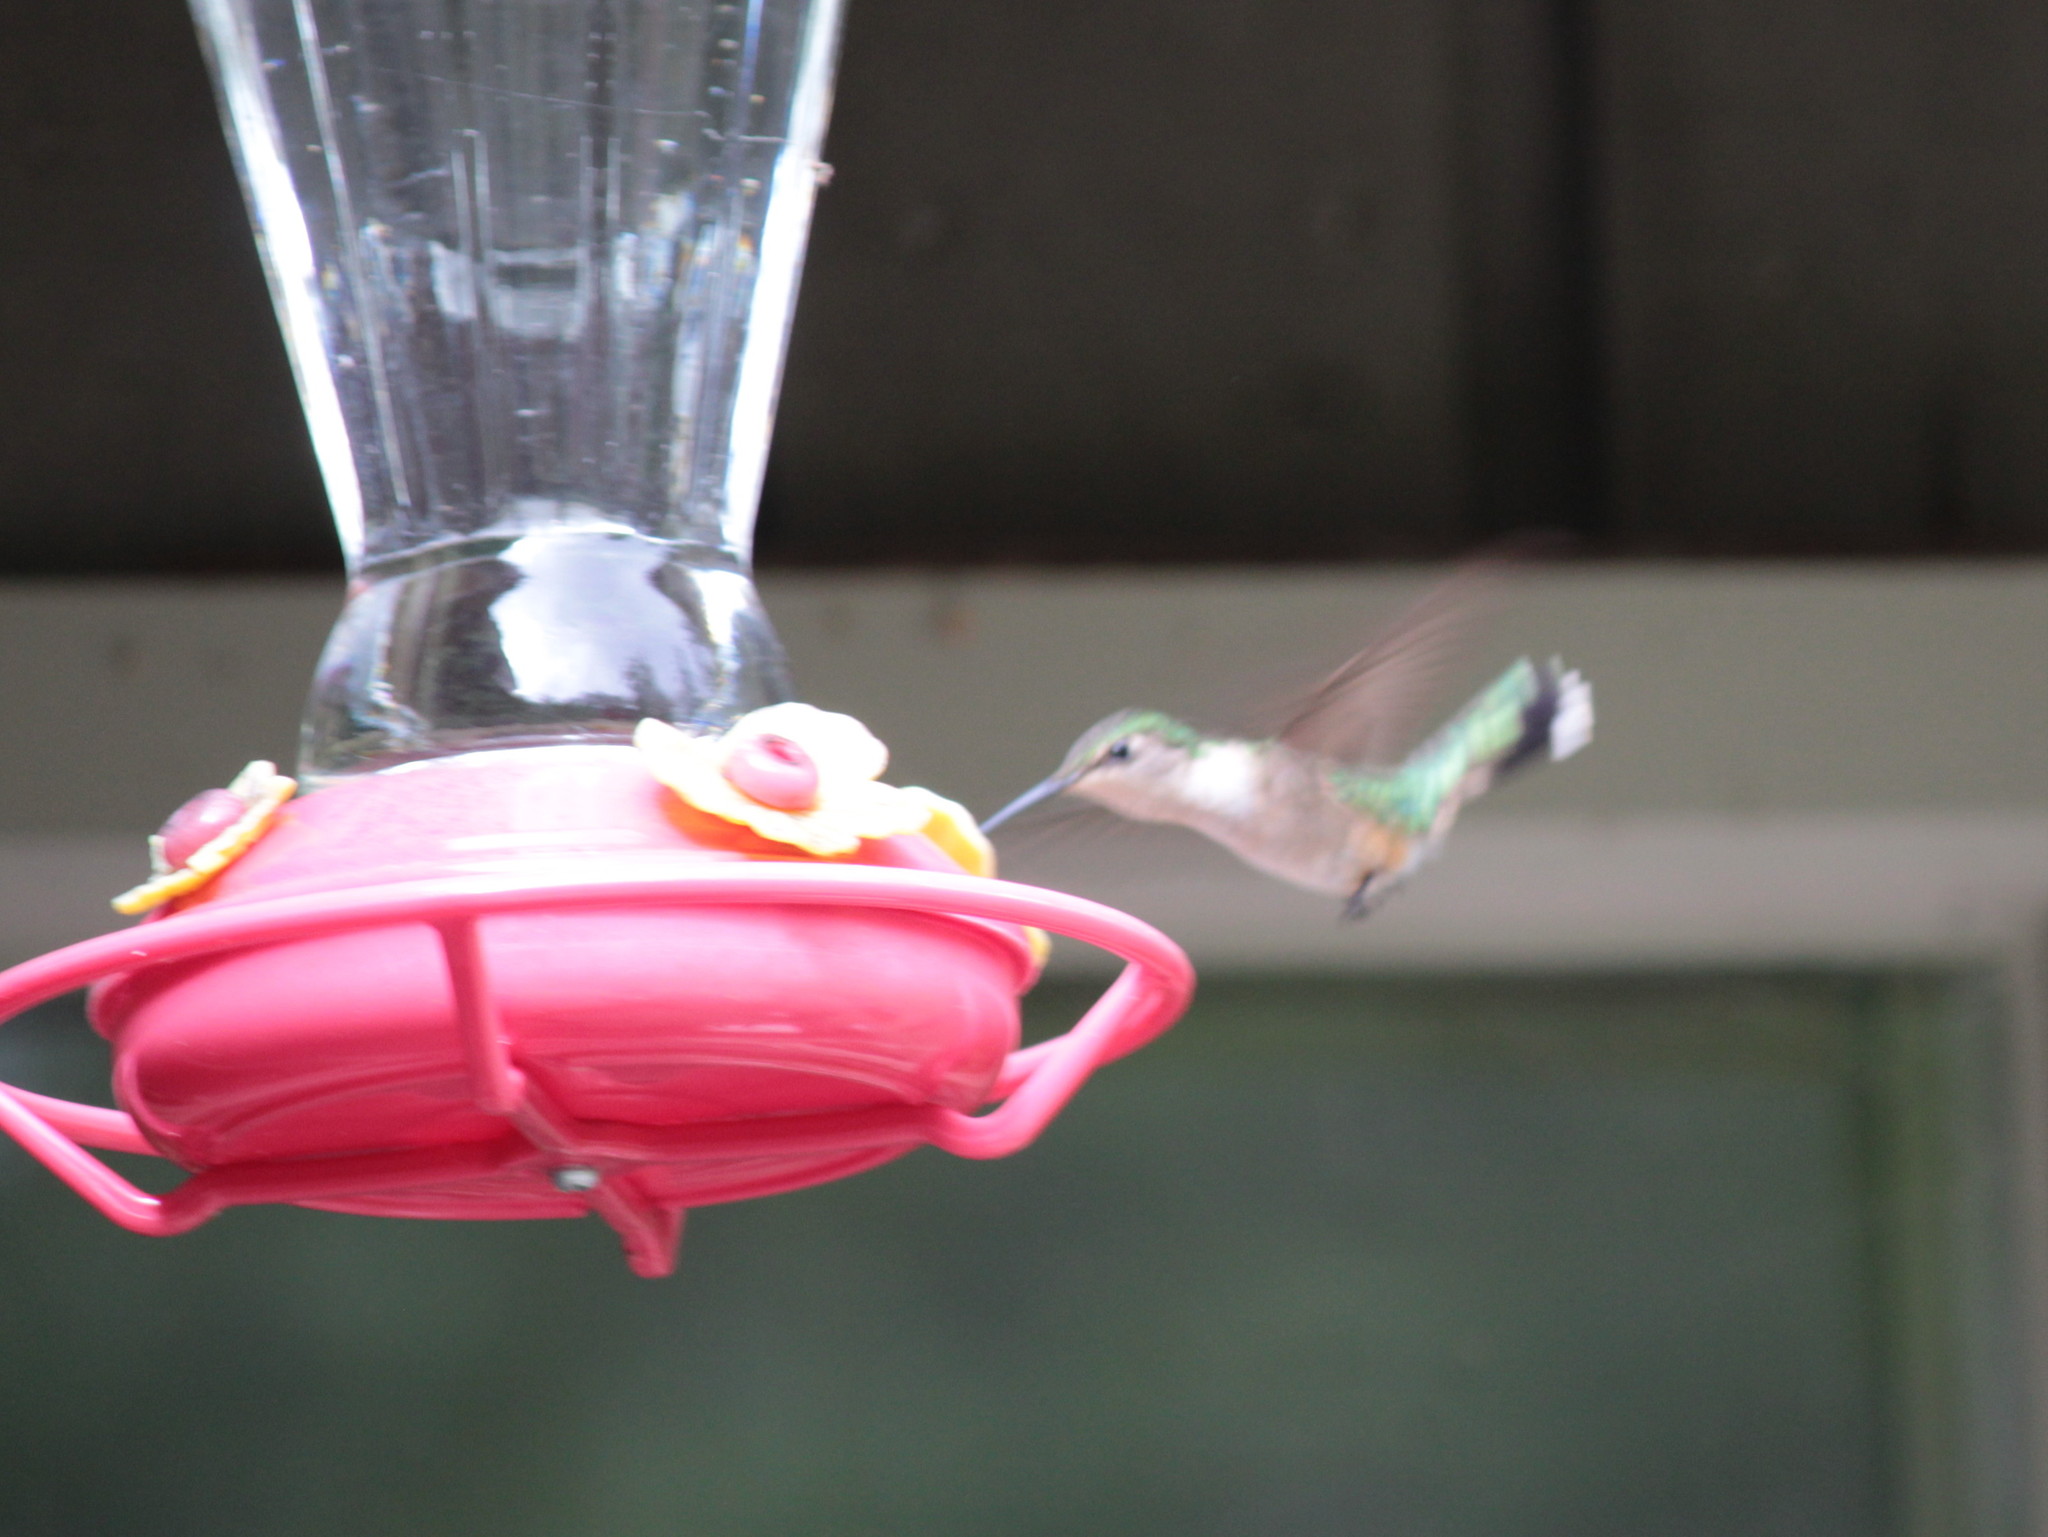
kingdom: Animalia
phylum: Chordata
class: Aves
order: Apodiformes
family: Trochilidae
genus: Archilochus
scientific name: Archilochus colubris
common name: Ruby-throated hummingbird
